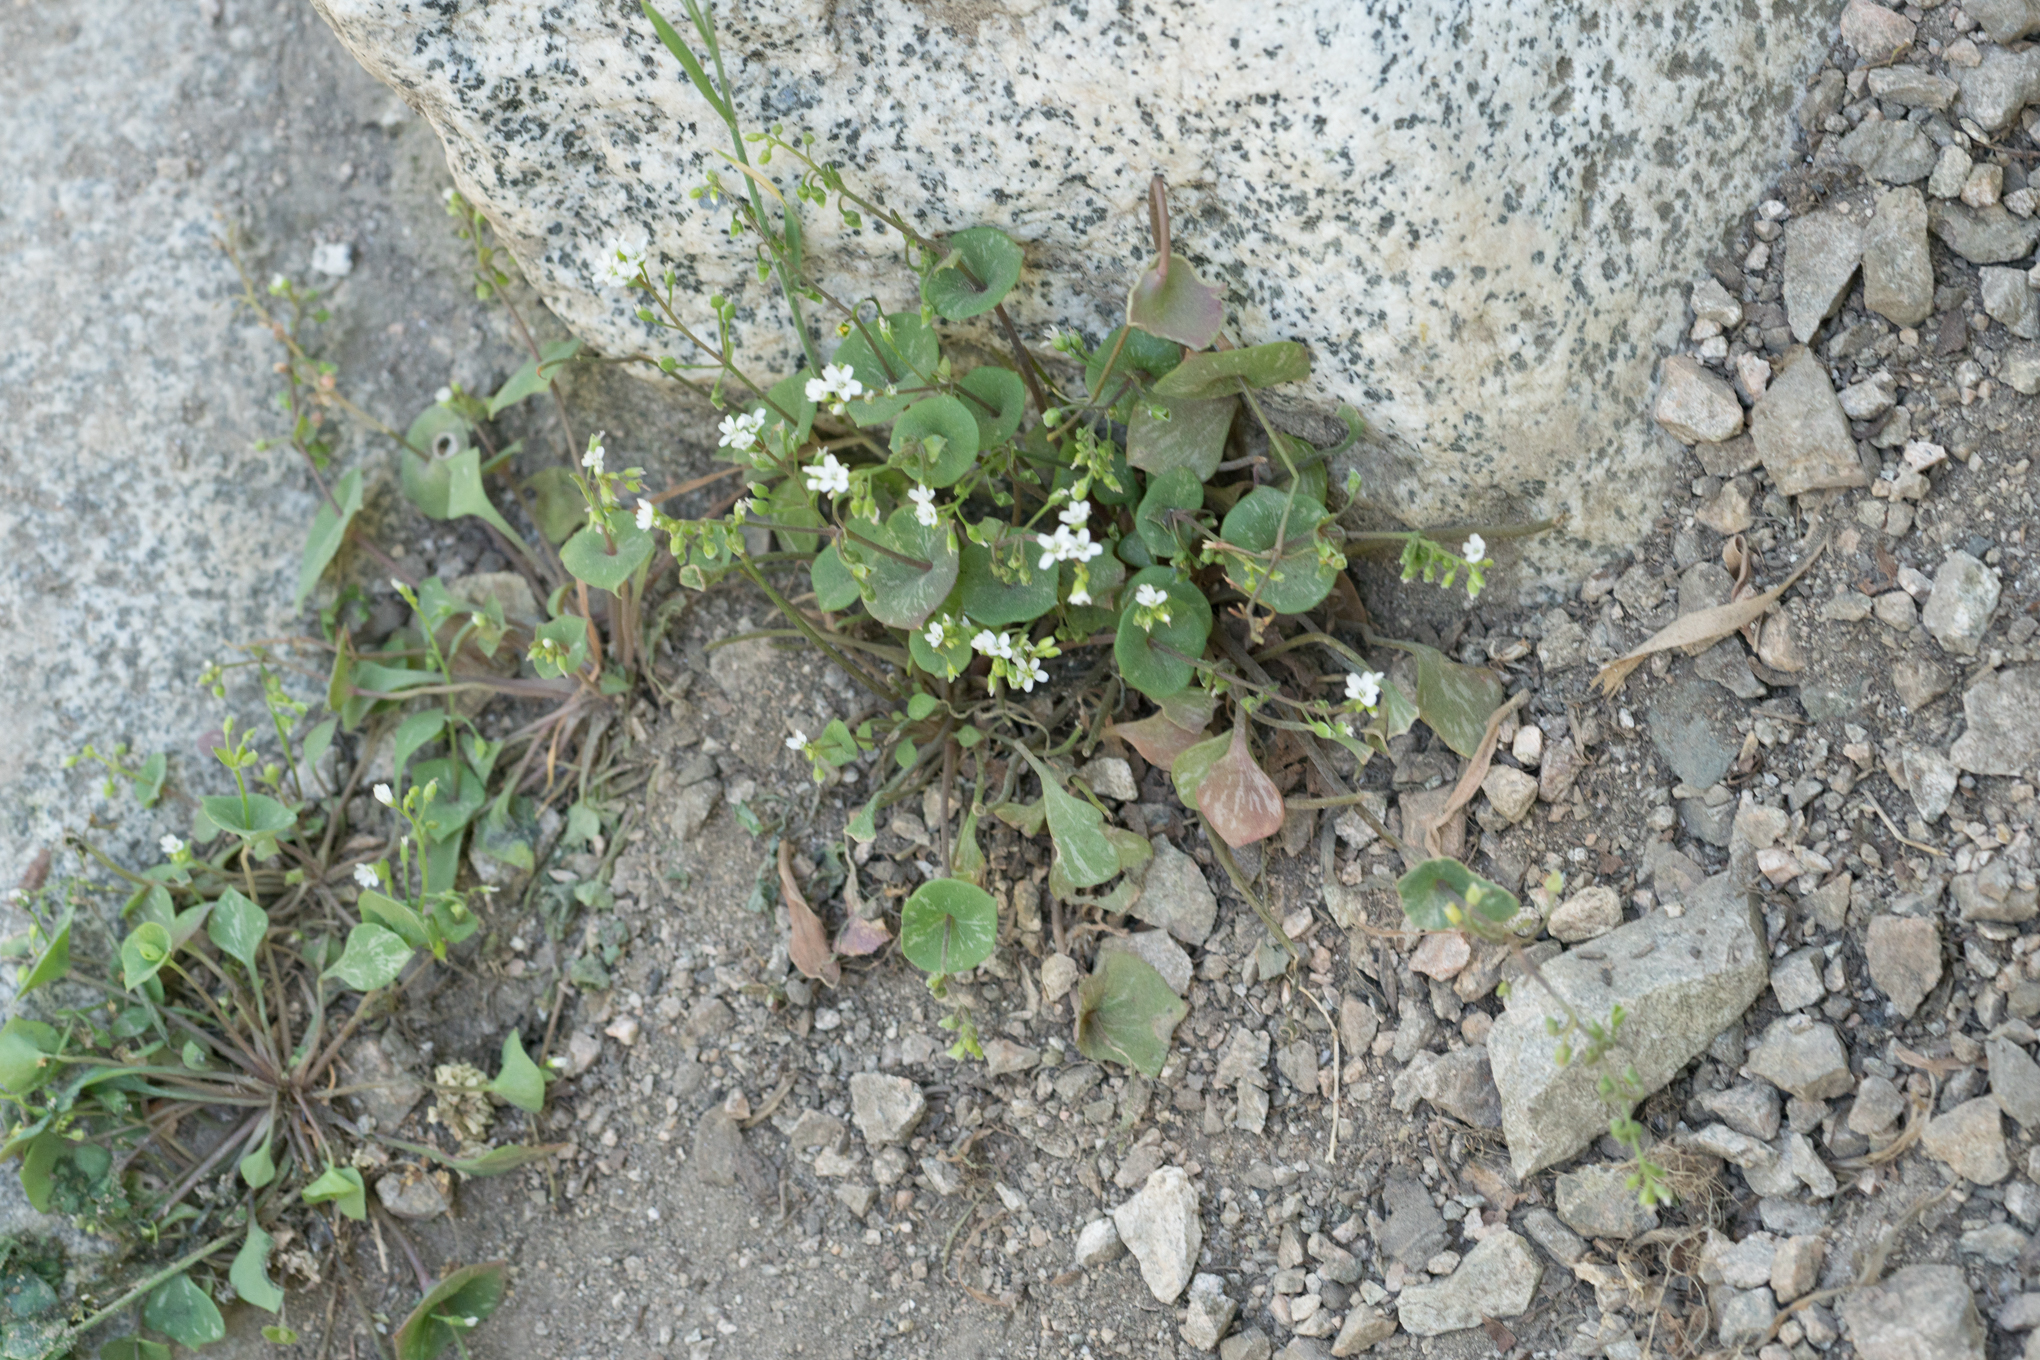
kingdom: Plantae
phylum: Tracheophyta
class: Magnoliopsida
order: Caryophyllales
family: Montiaceae
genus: Claytonia
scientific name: Claytonia perfoliata
